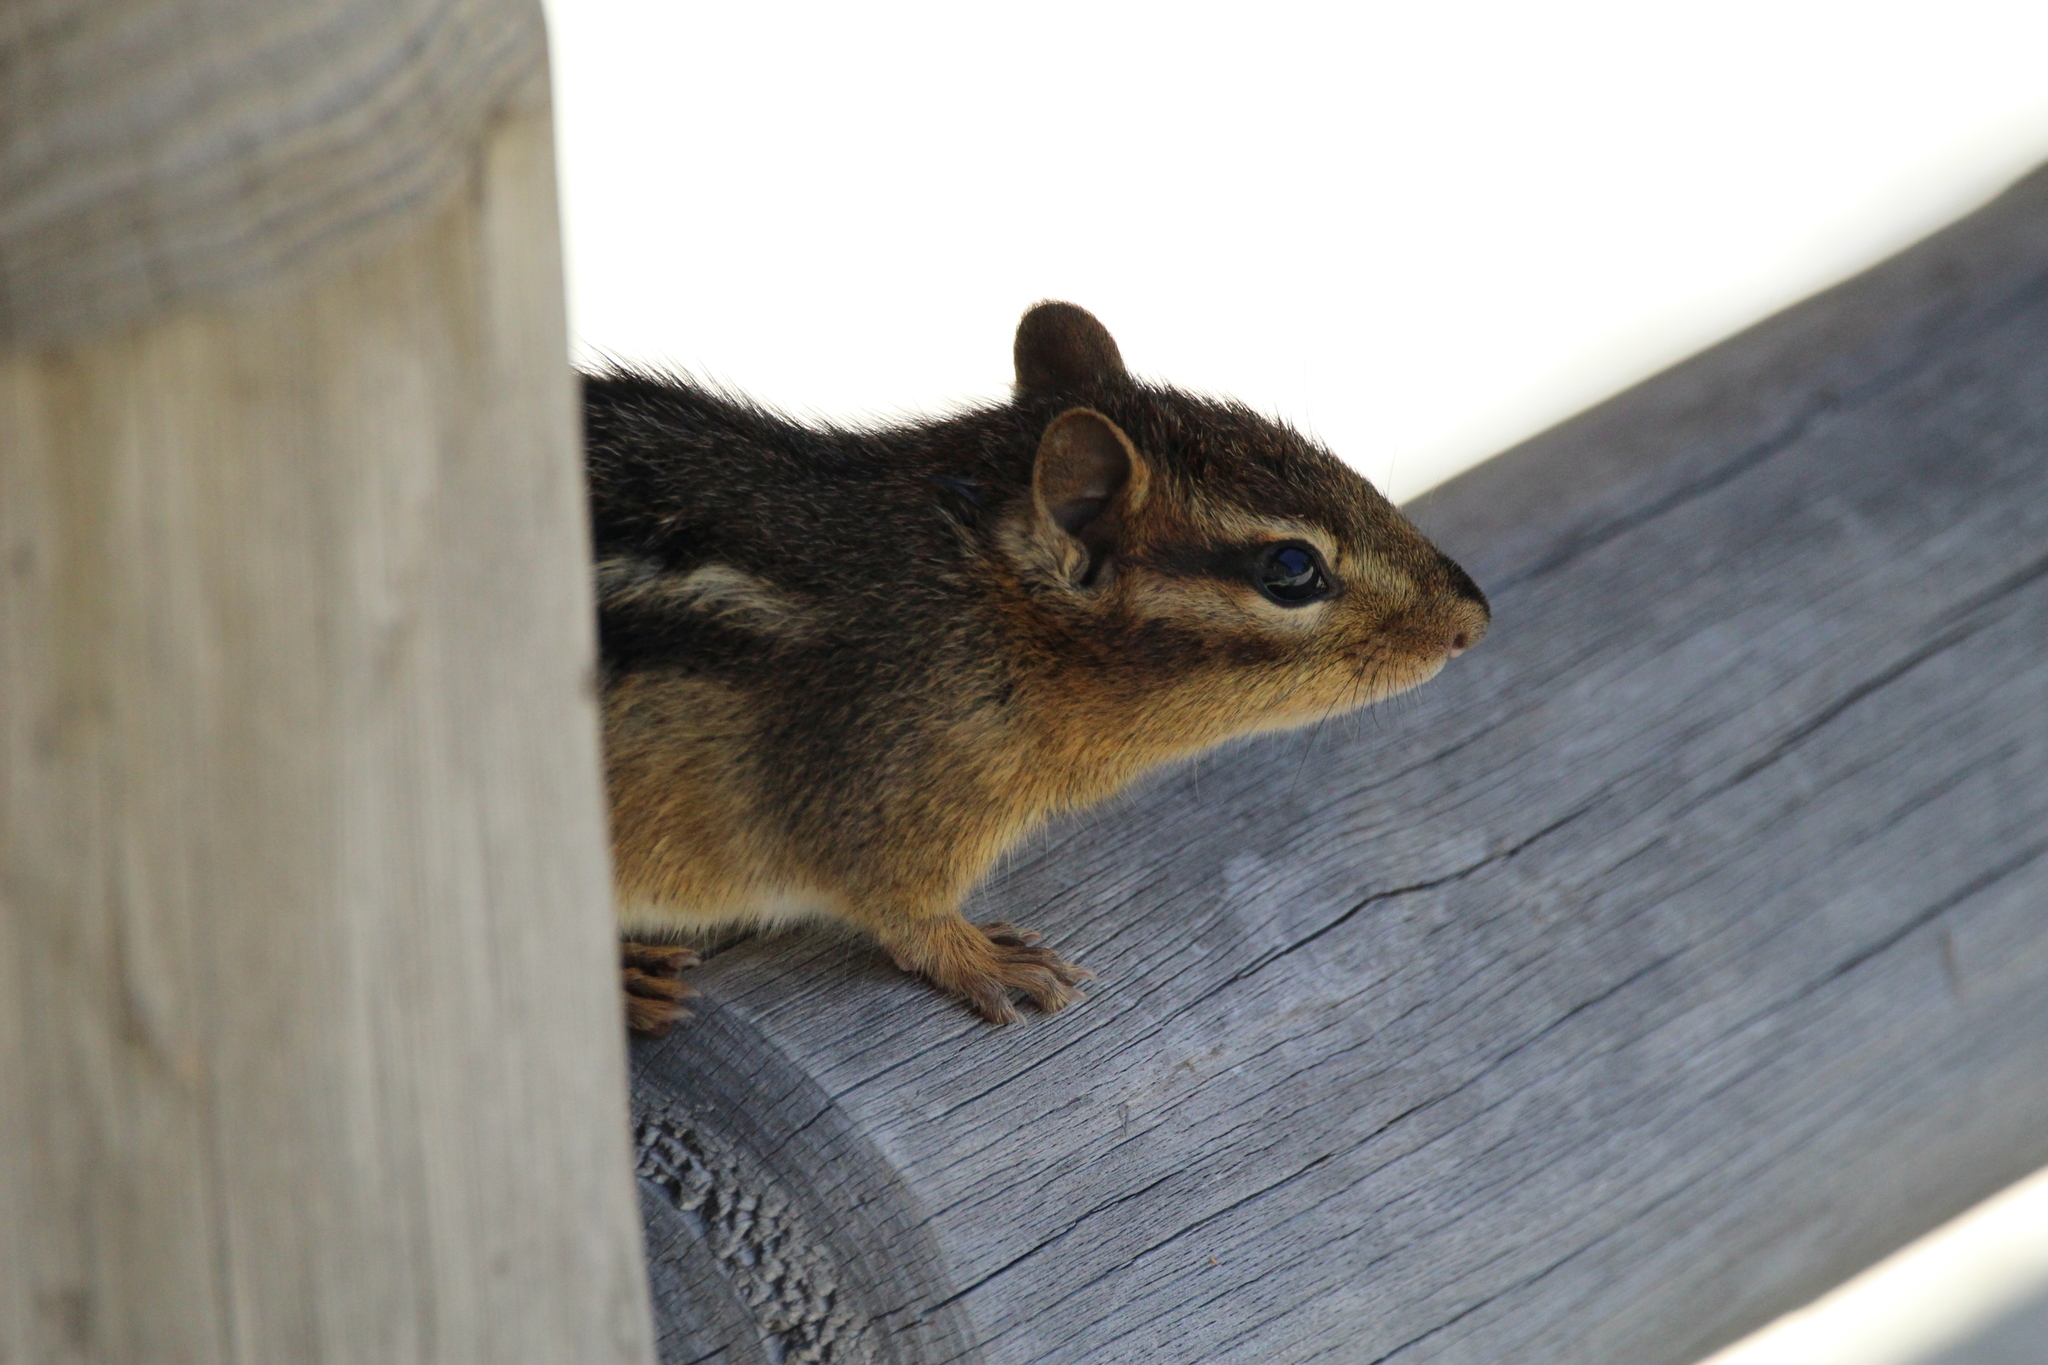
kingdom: Animalia
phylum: Chordata
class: Mammalia
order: Rodentia
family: Sciuridae
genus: Tamias
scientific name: Tamias striatus
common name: Eastern chipmunk
